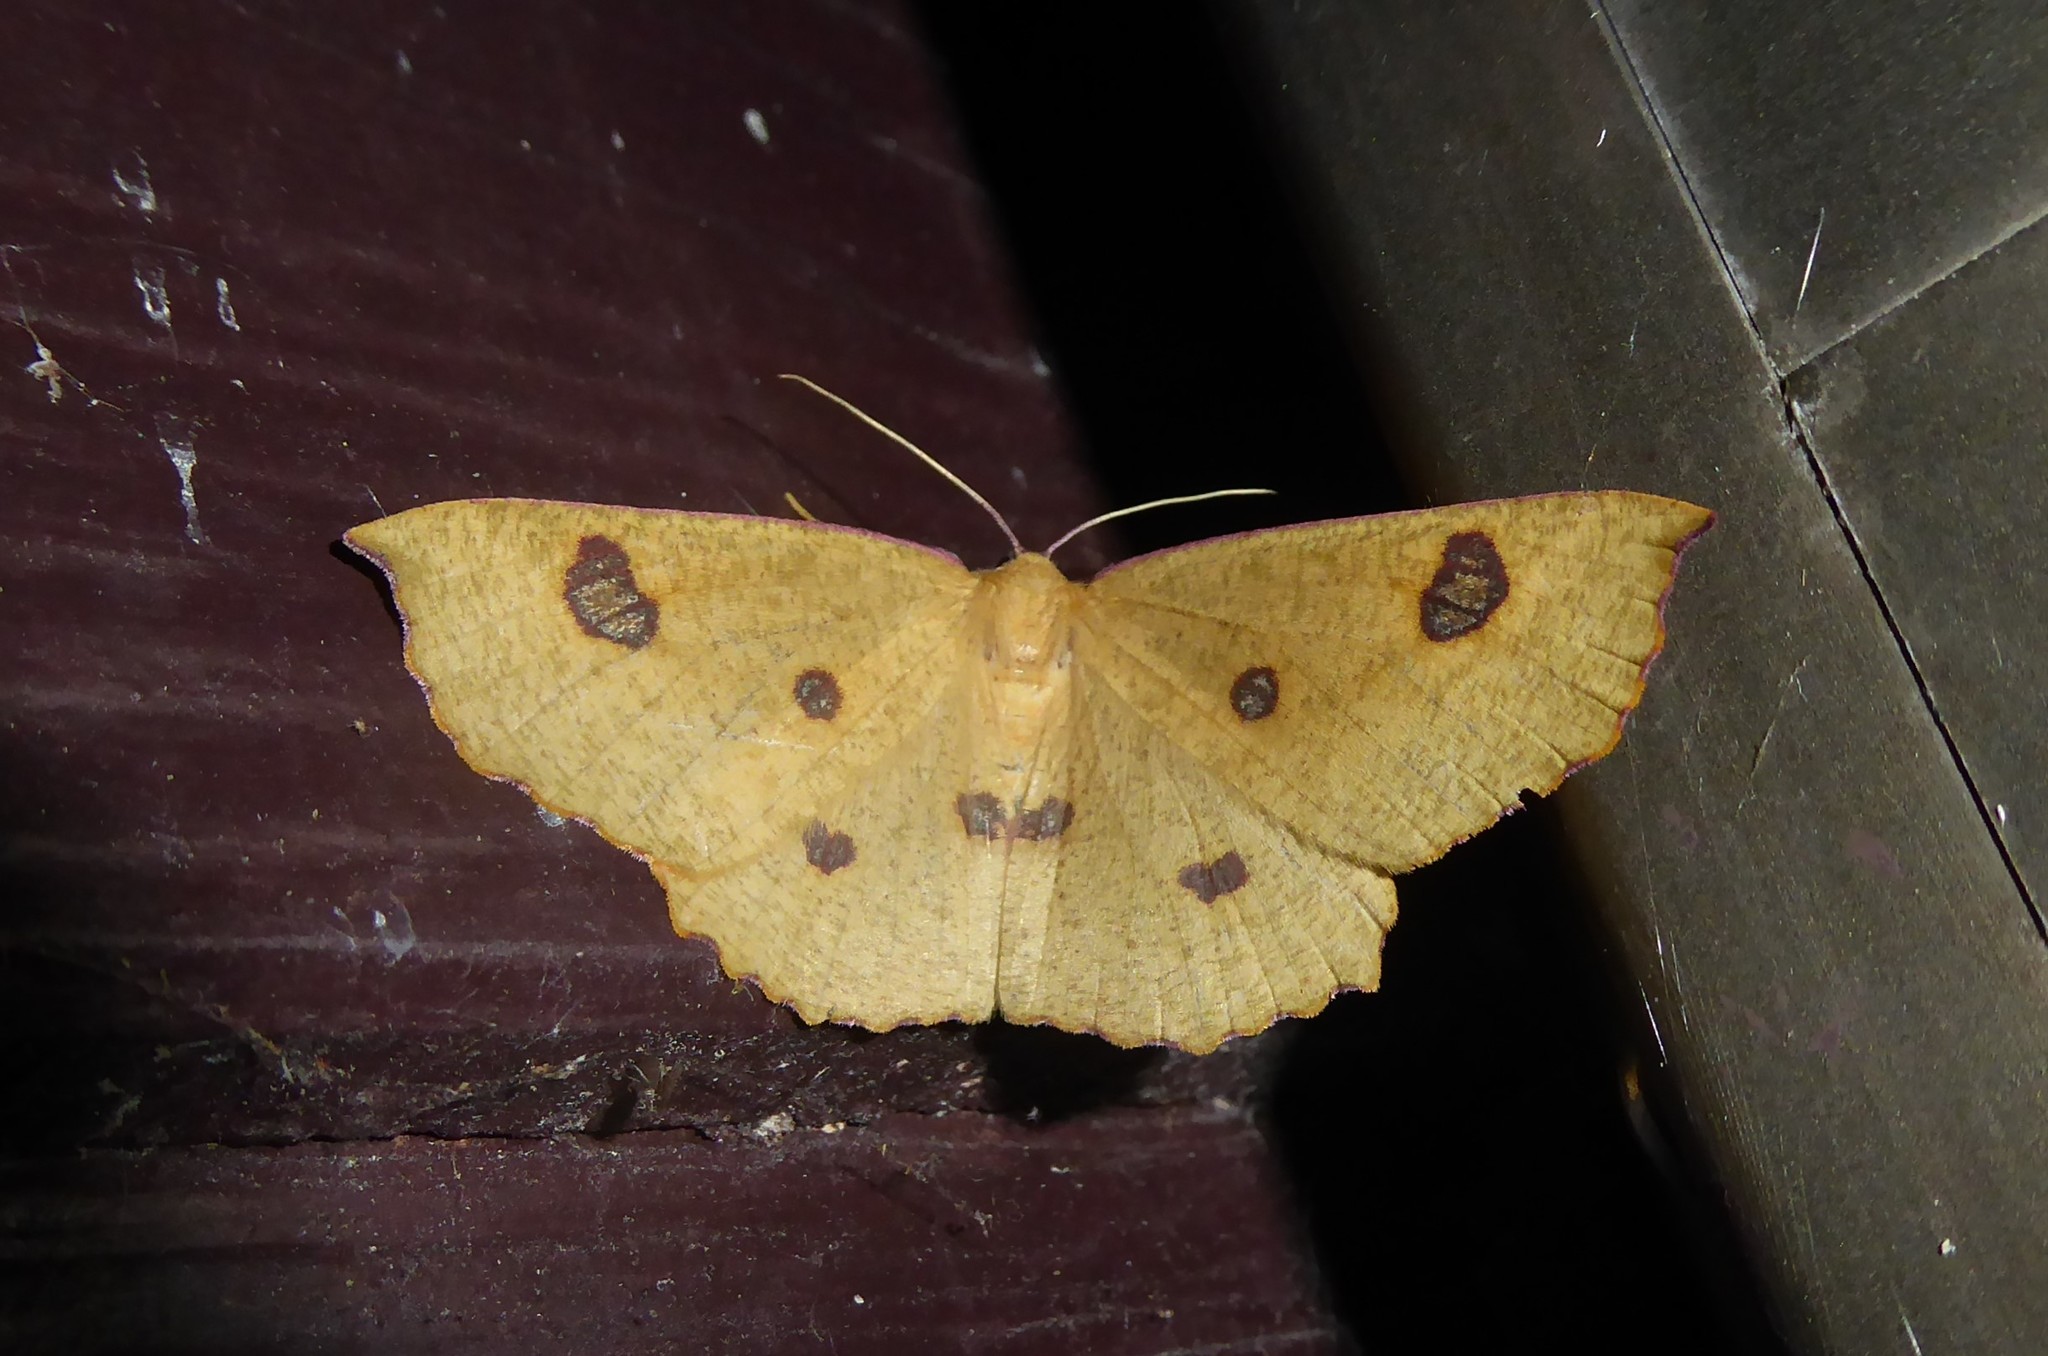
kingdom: Animalia
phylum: Arthropoda
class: Insecta
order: Lepidoptera
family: Geometridae
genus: Xyridacma
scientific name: Xyridacma alectoraria
